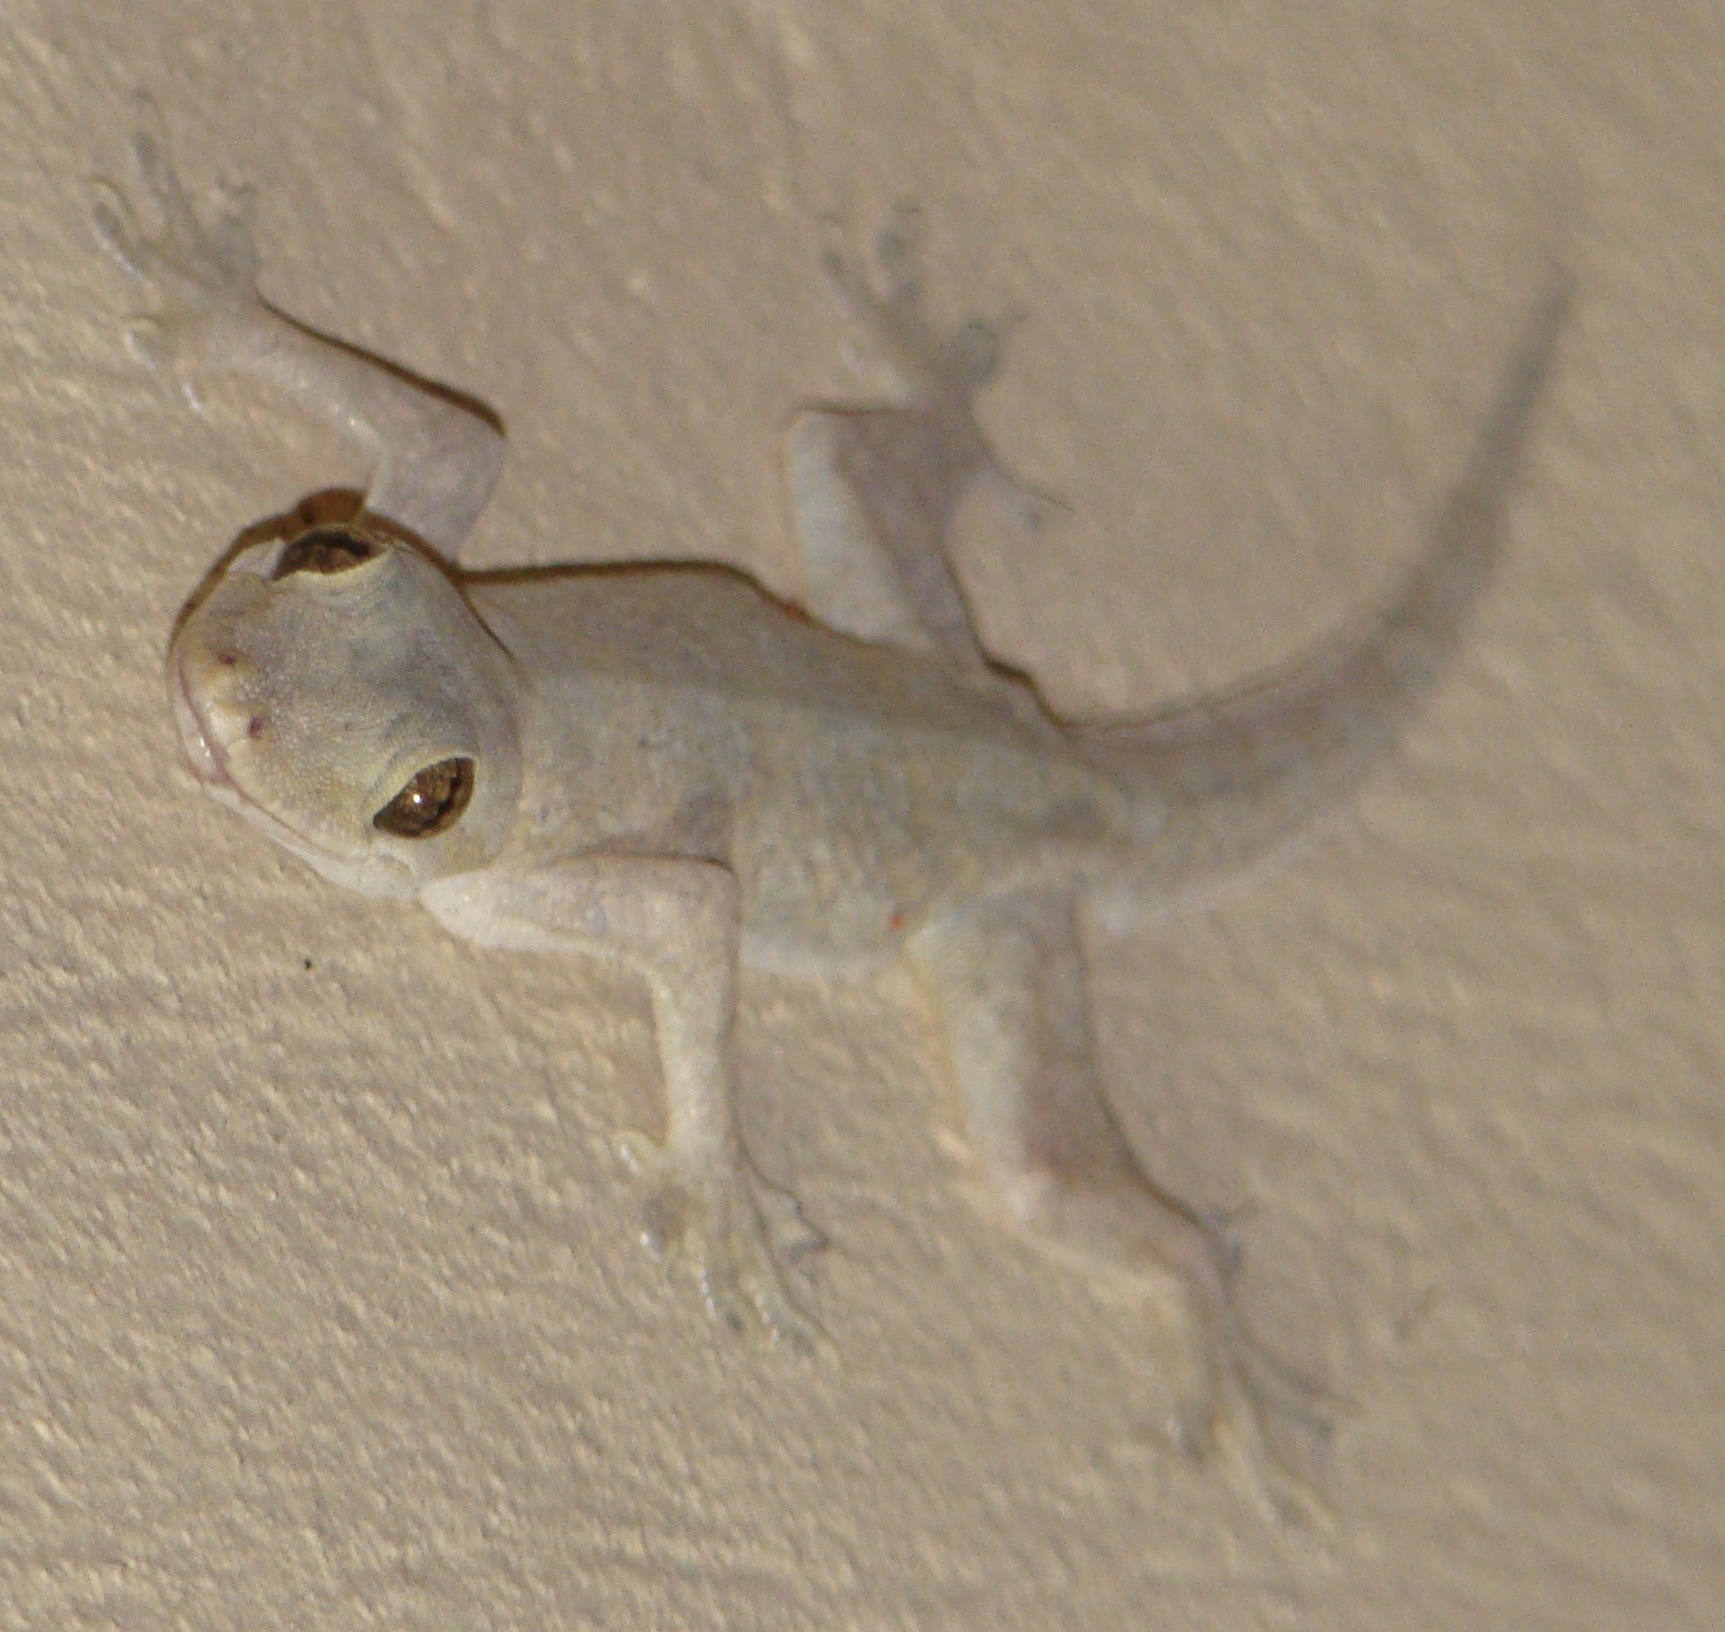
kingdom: Animalia
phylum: Chordata
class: Squamata
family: Gekkonidae
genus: Hemidactylus
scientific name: Hemidactylus platyurus
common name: Flat-tailed house gecko
